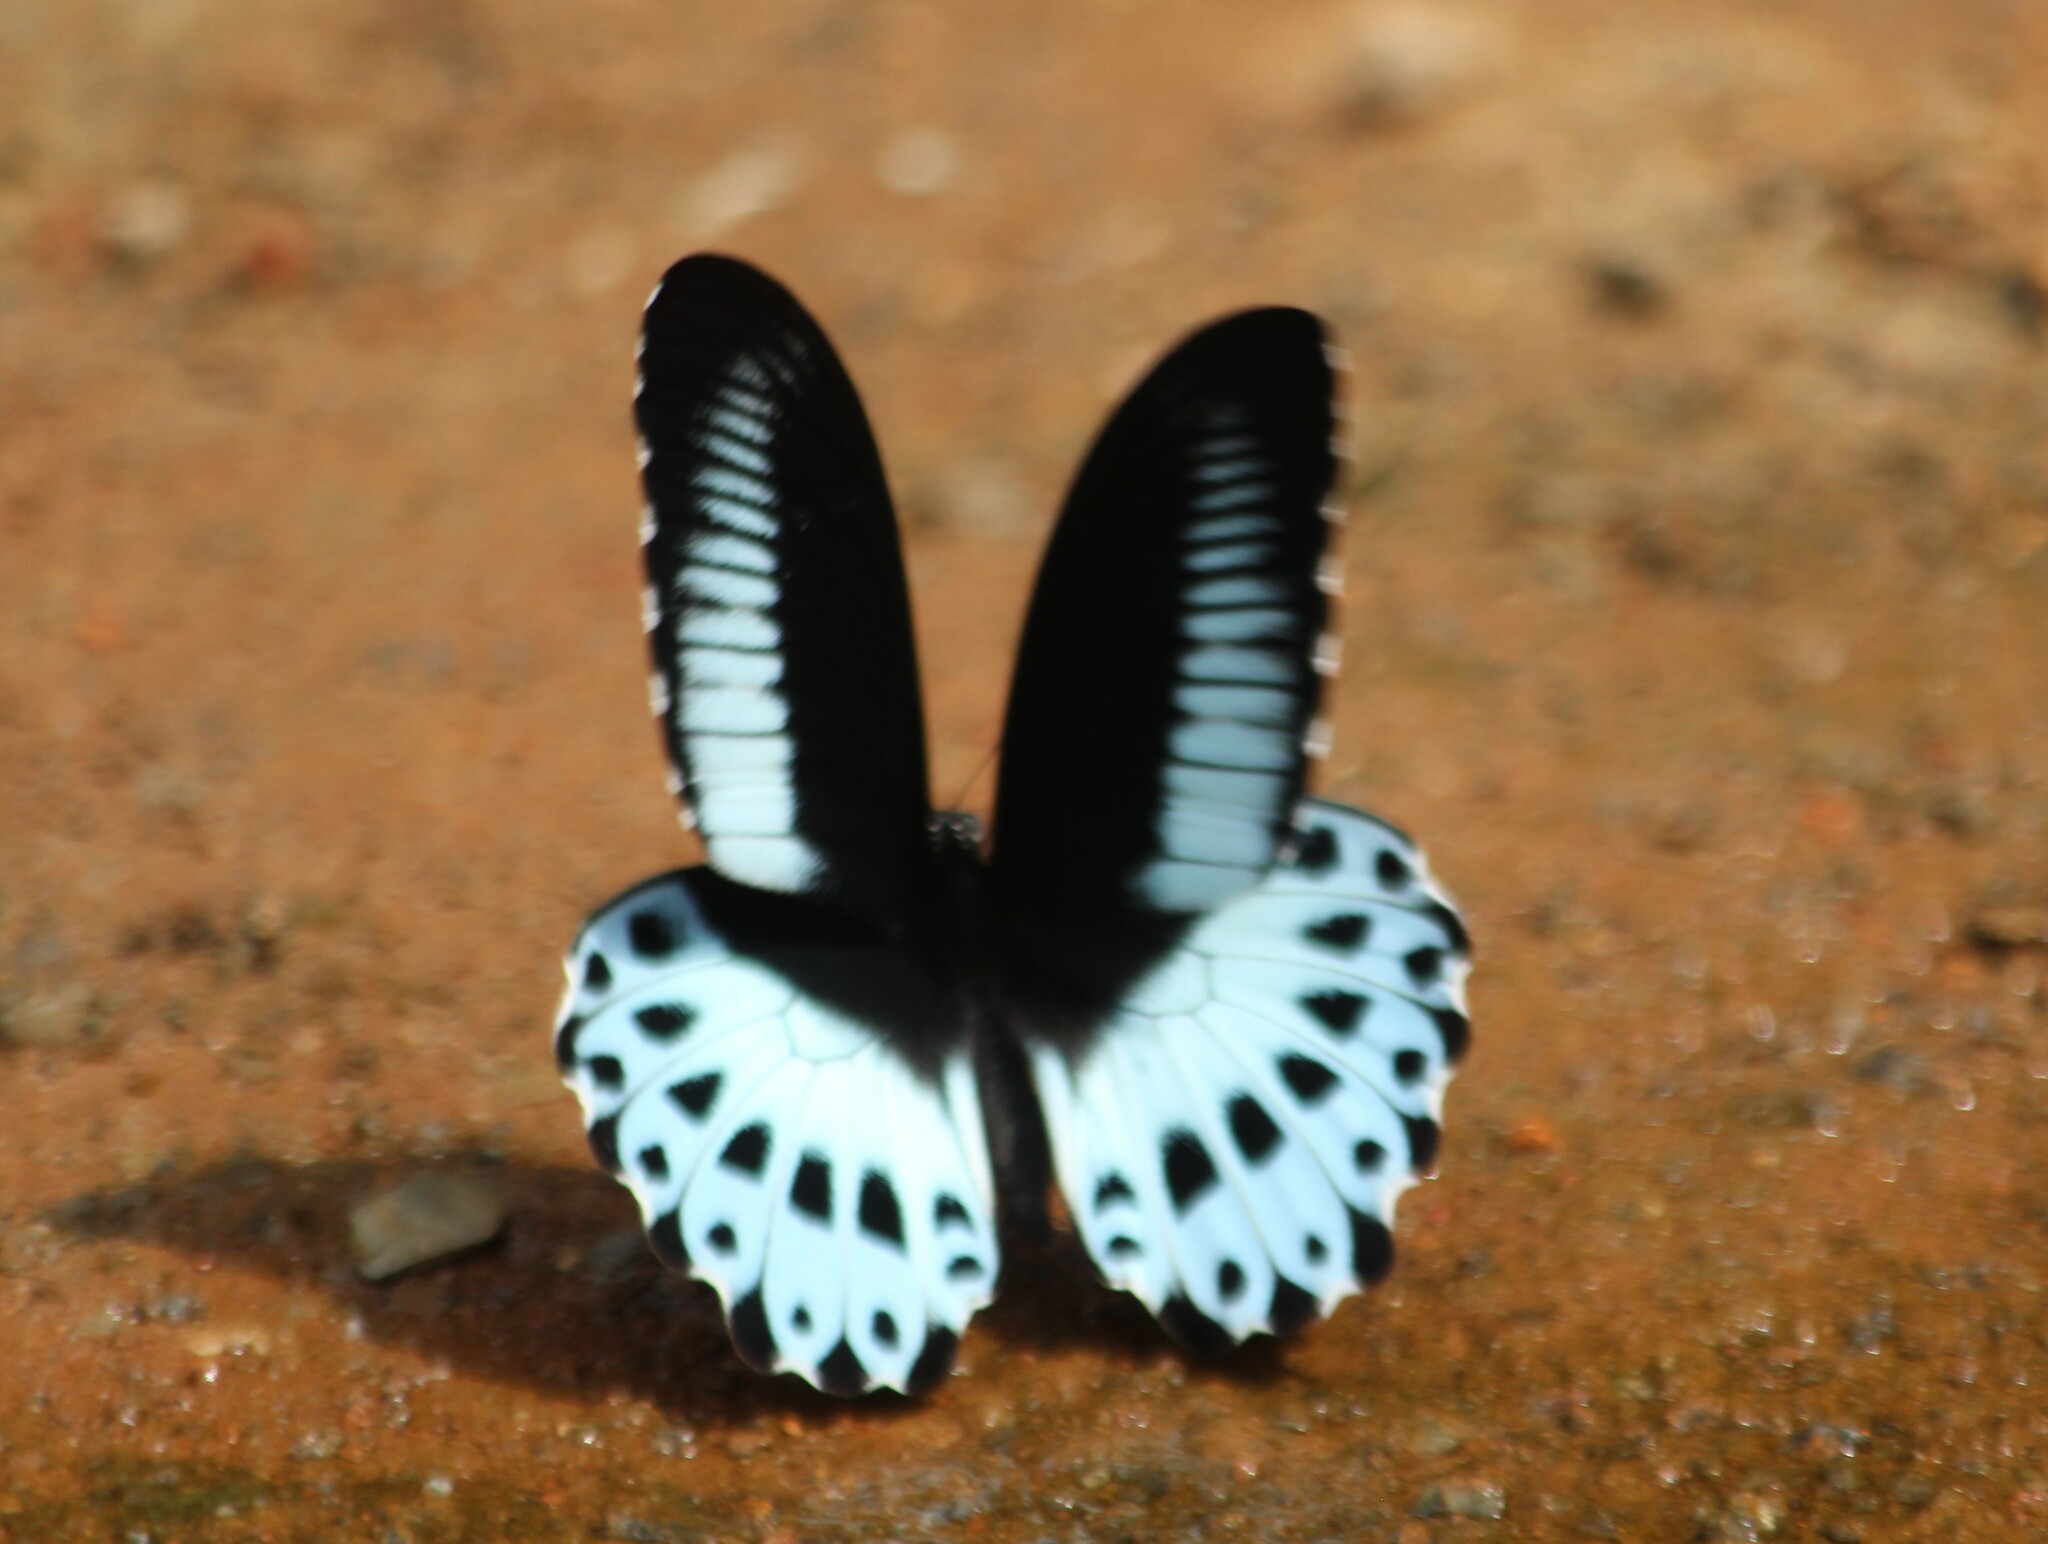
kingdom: Animalia
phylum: Arthropoda
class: Insecta
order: Lepidoptera
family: Papilionidae
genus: Papilio
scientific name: Papilio memnon
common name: Great mormon
